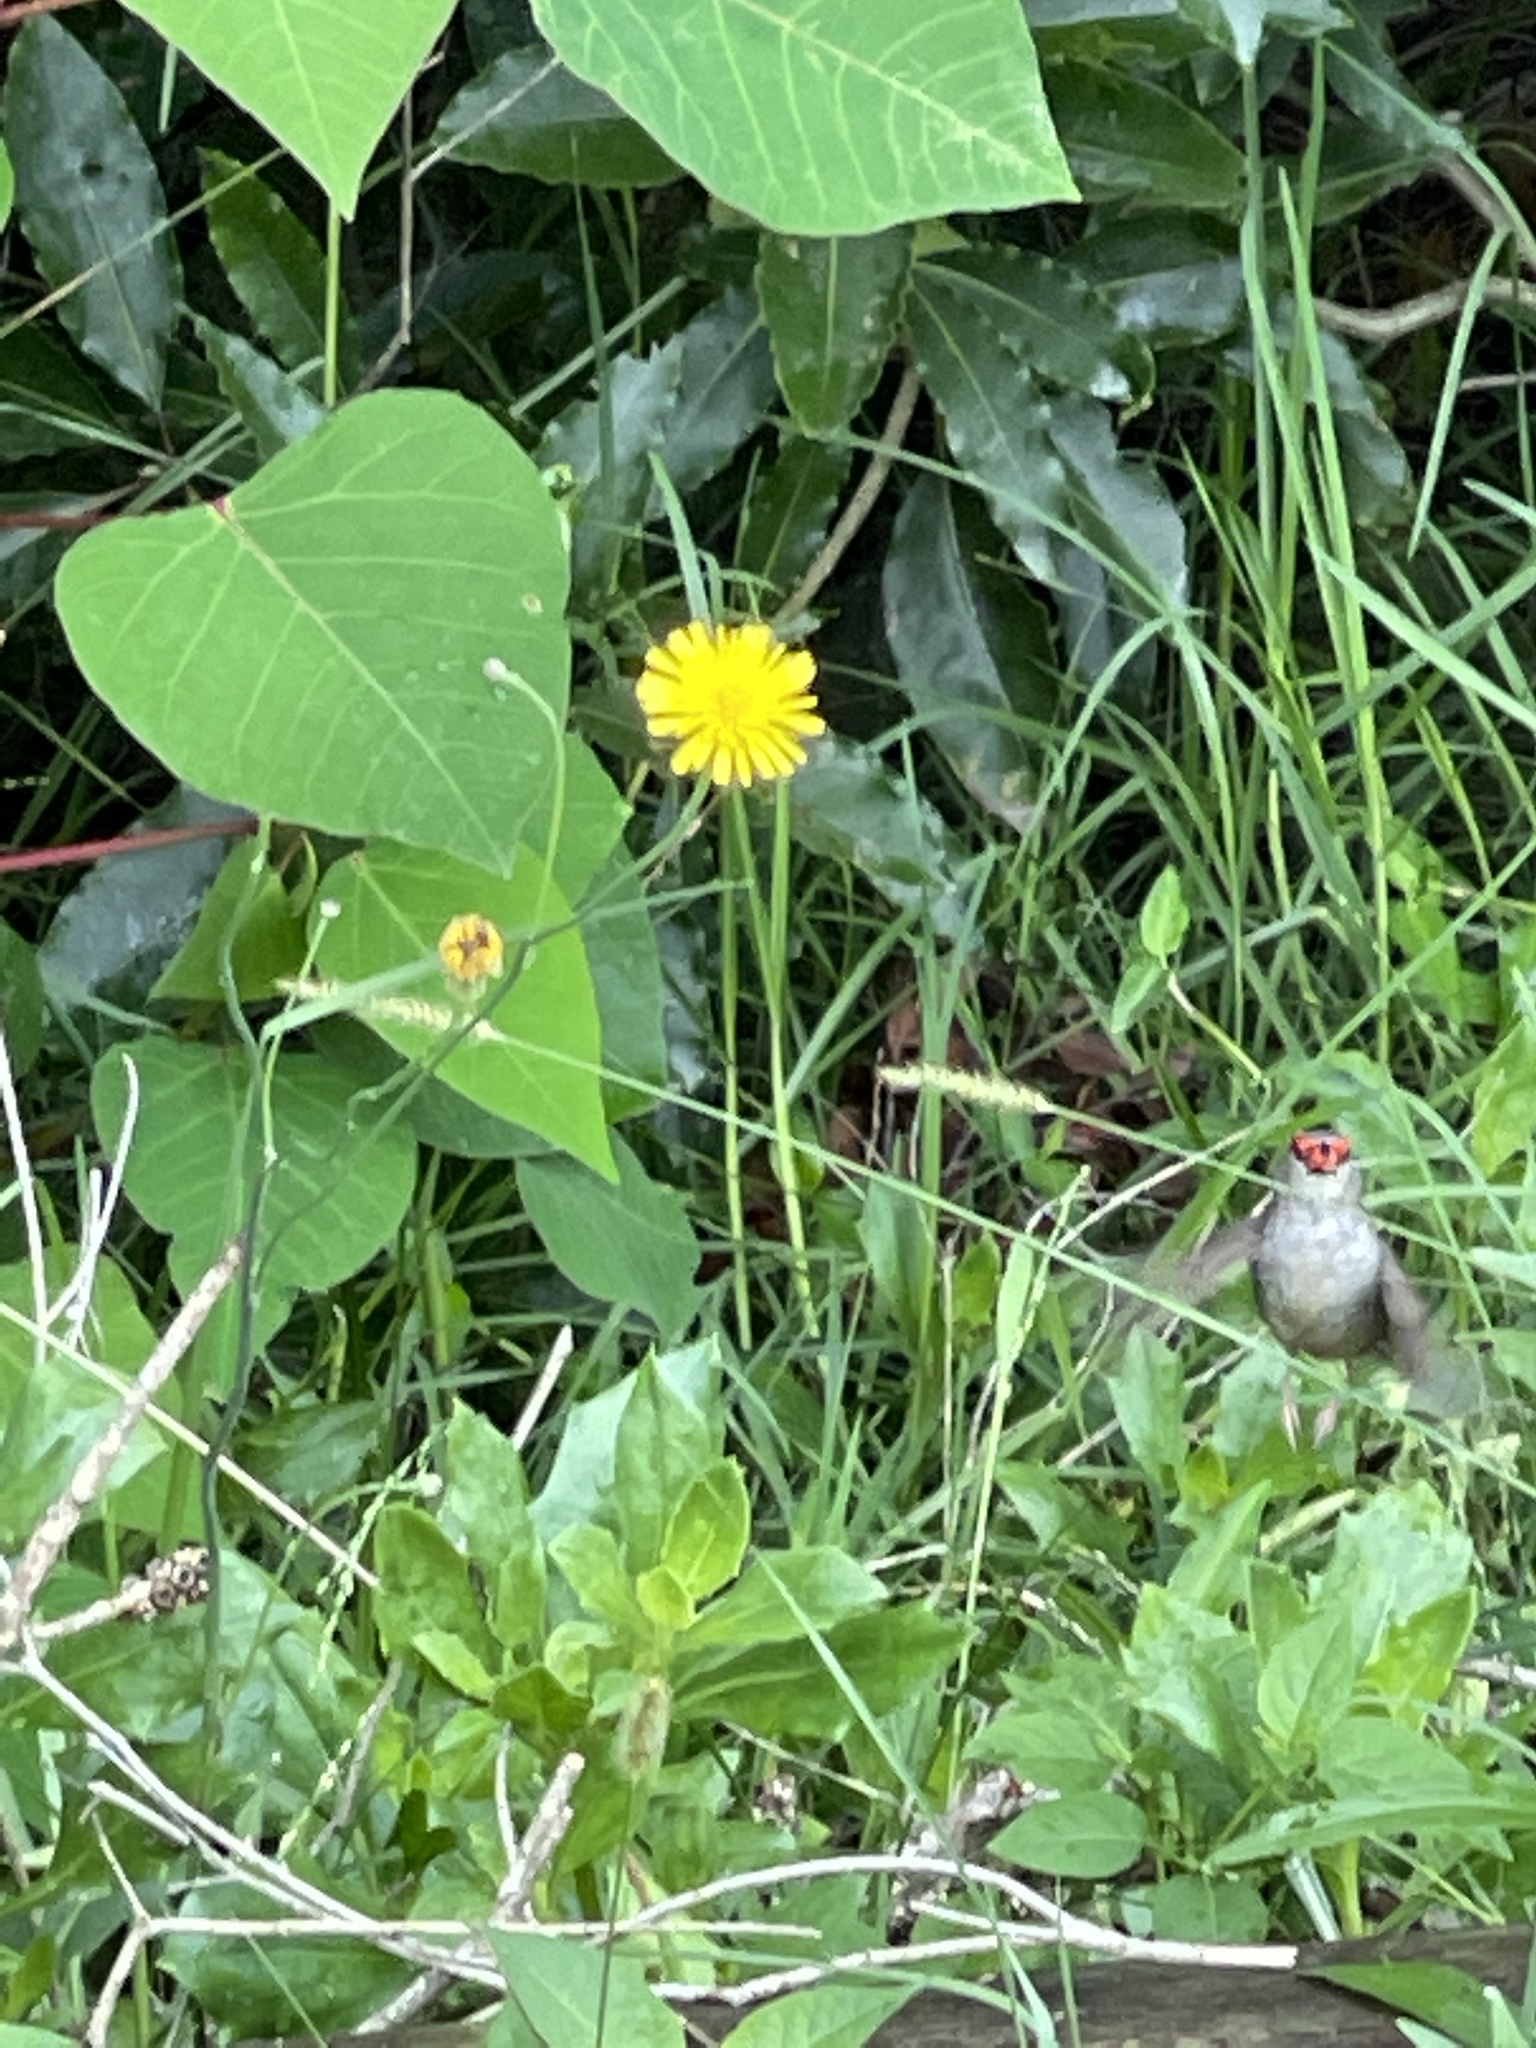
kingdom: Animalia
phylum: Chordata
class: Aves
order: Passeriformes
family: Estrildidae
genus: Neochmia
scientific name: Neochmia temporalis
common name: Red-browed finch
